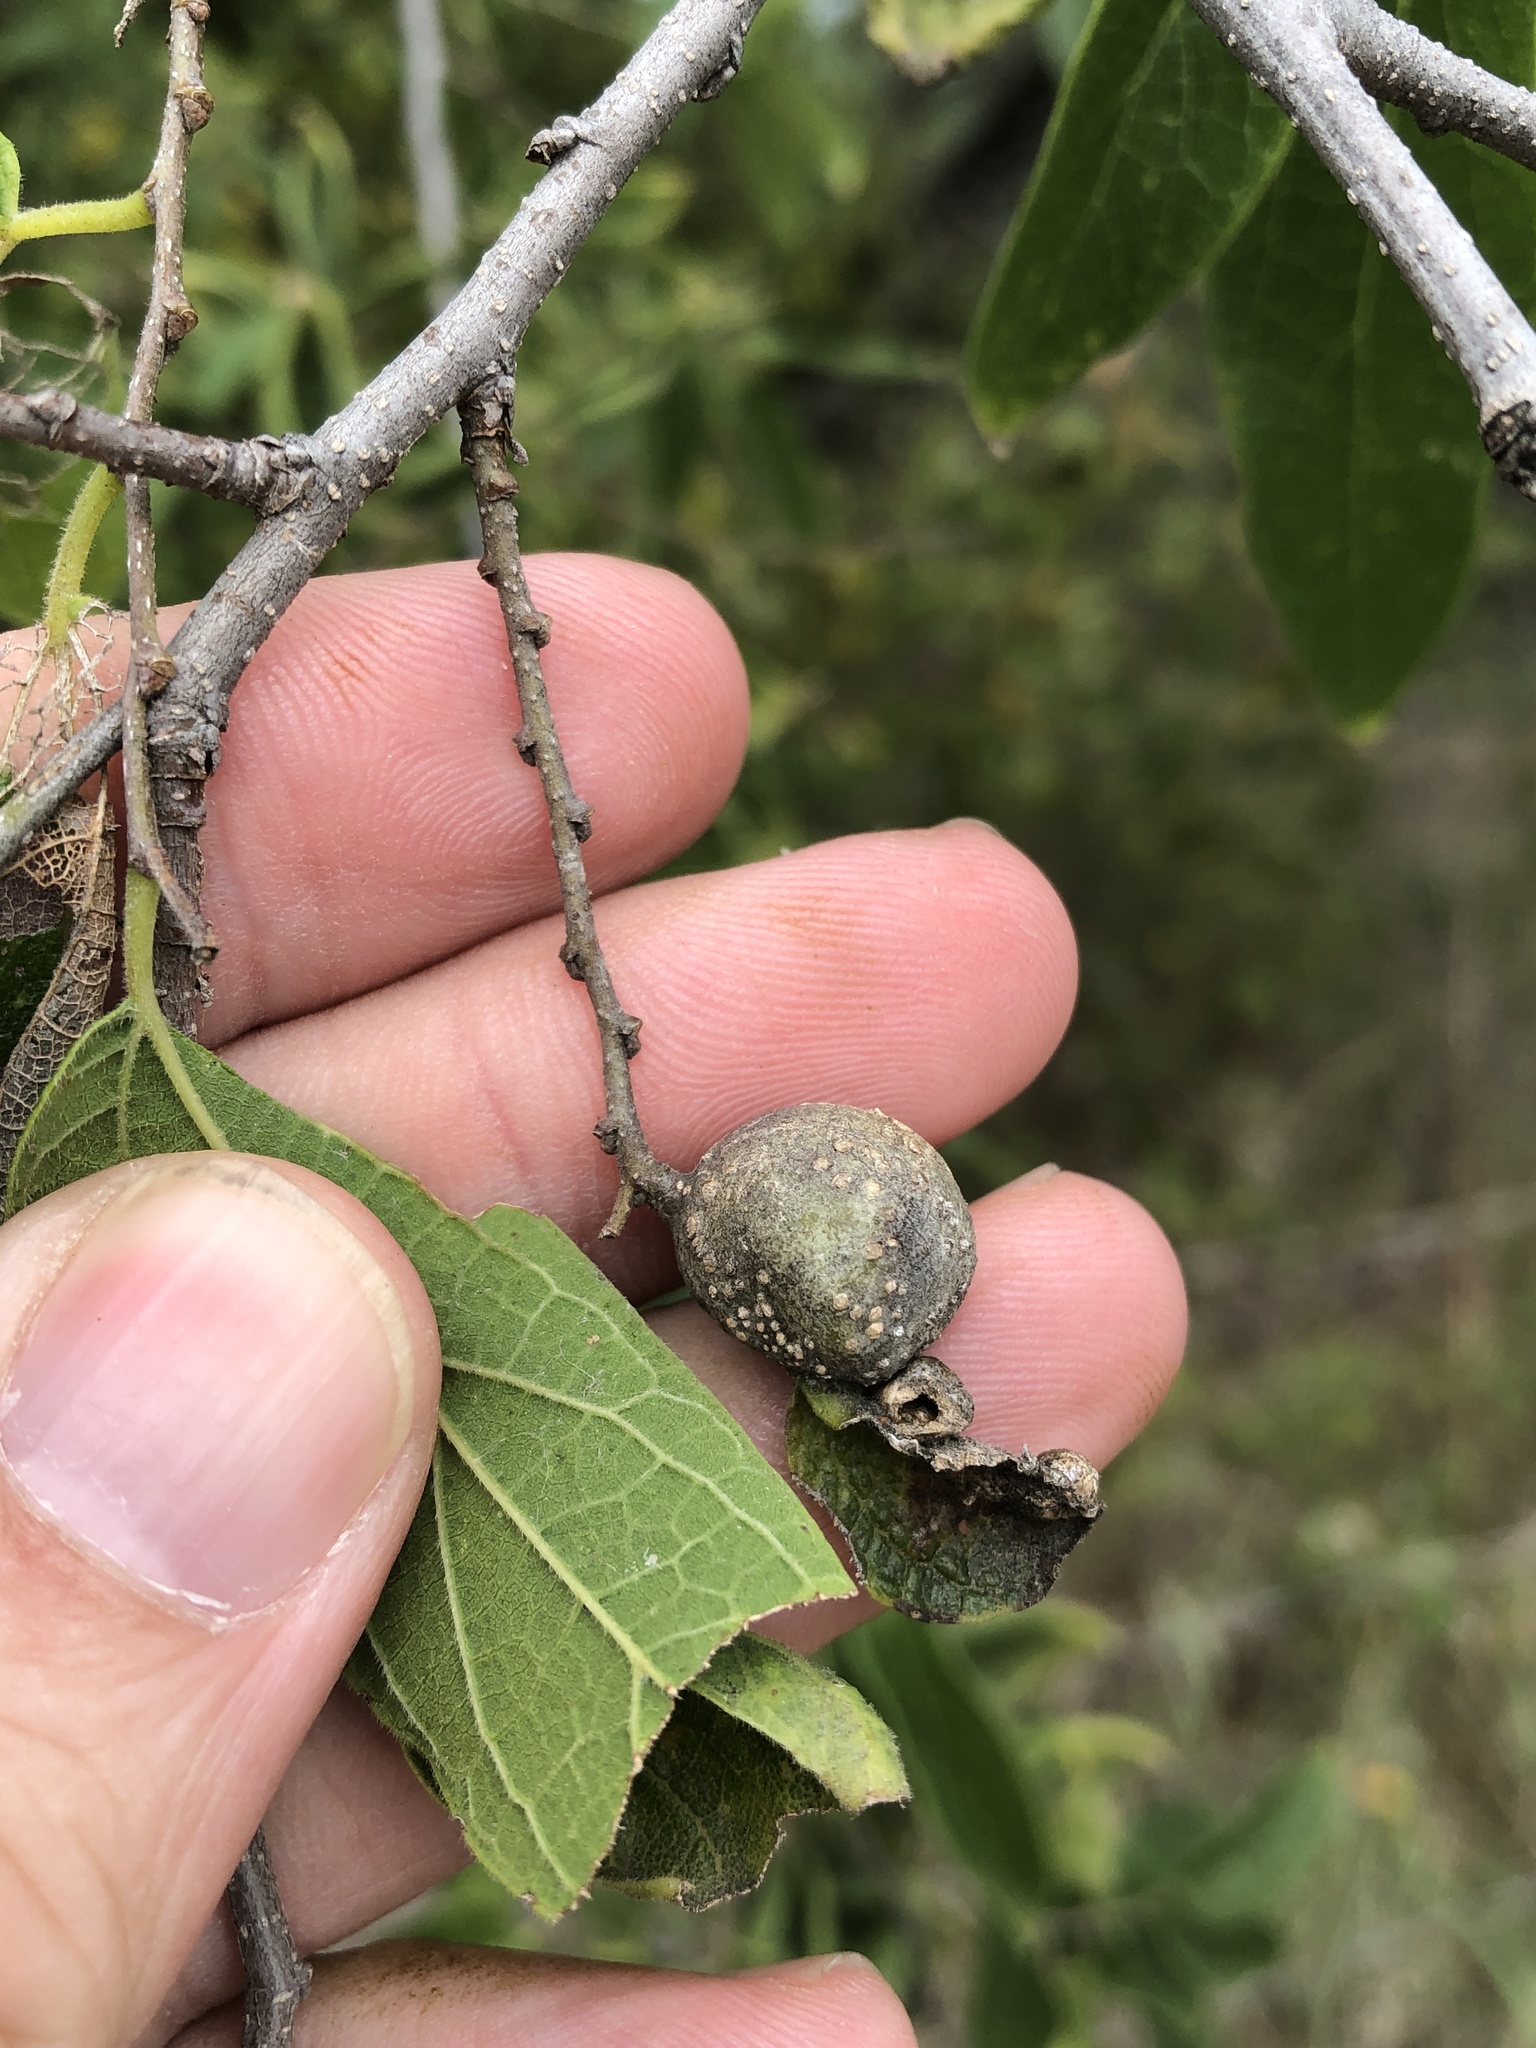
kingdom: Animalia
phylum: Arthropoda
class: Insecta
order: Hemiptera
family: Aphalaridae
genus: Pachypsylla
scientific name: Pachypsylla venusta
